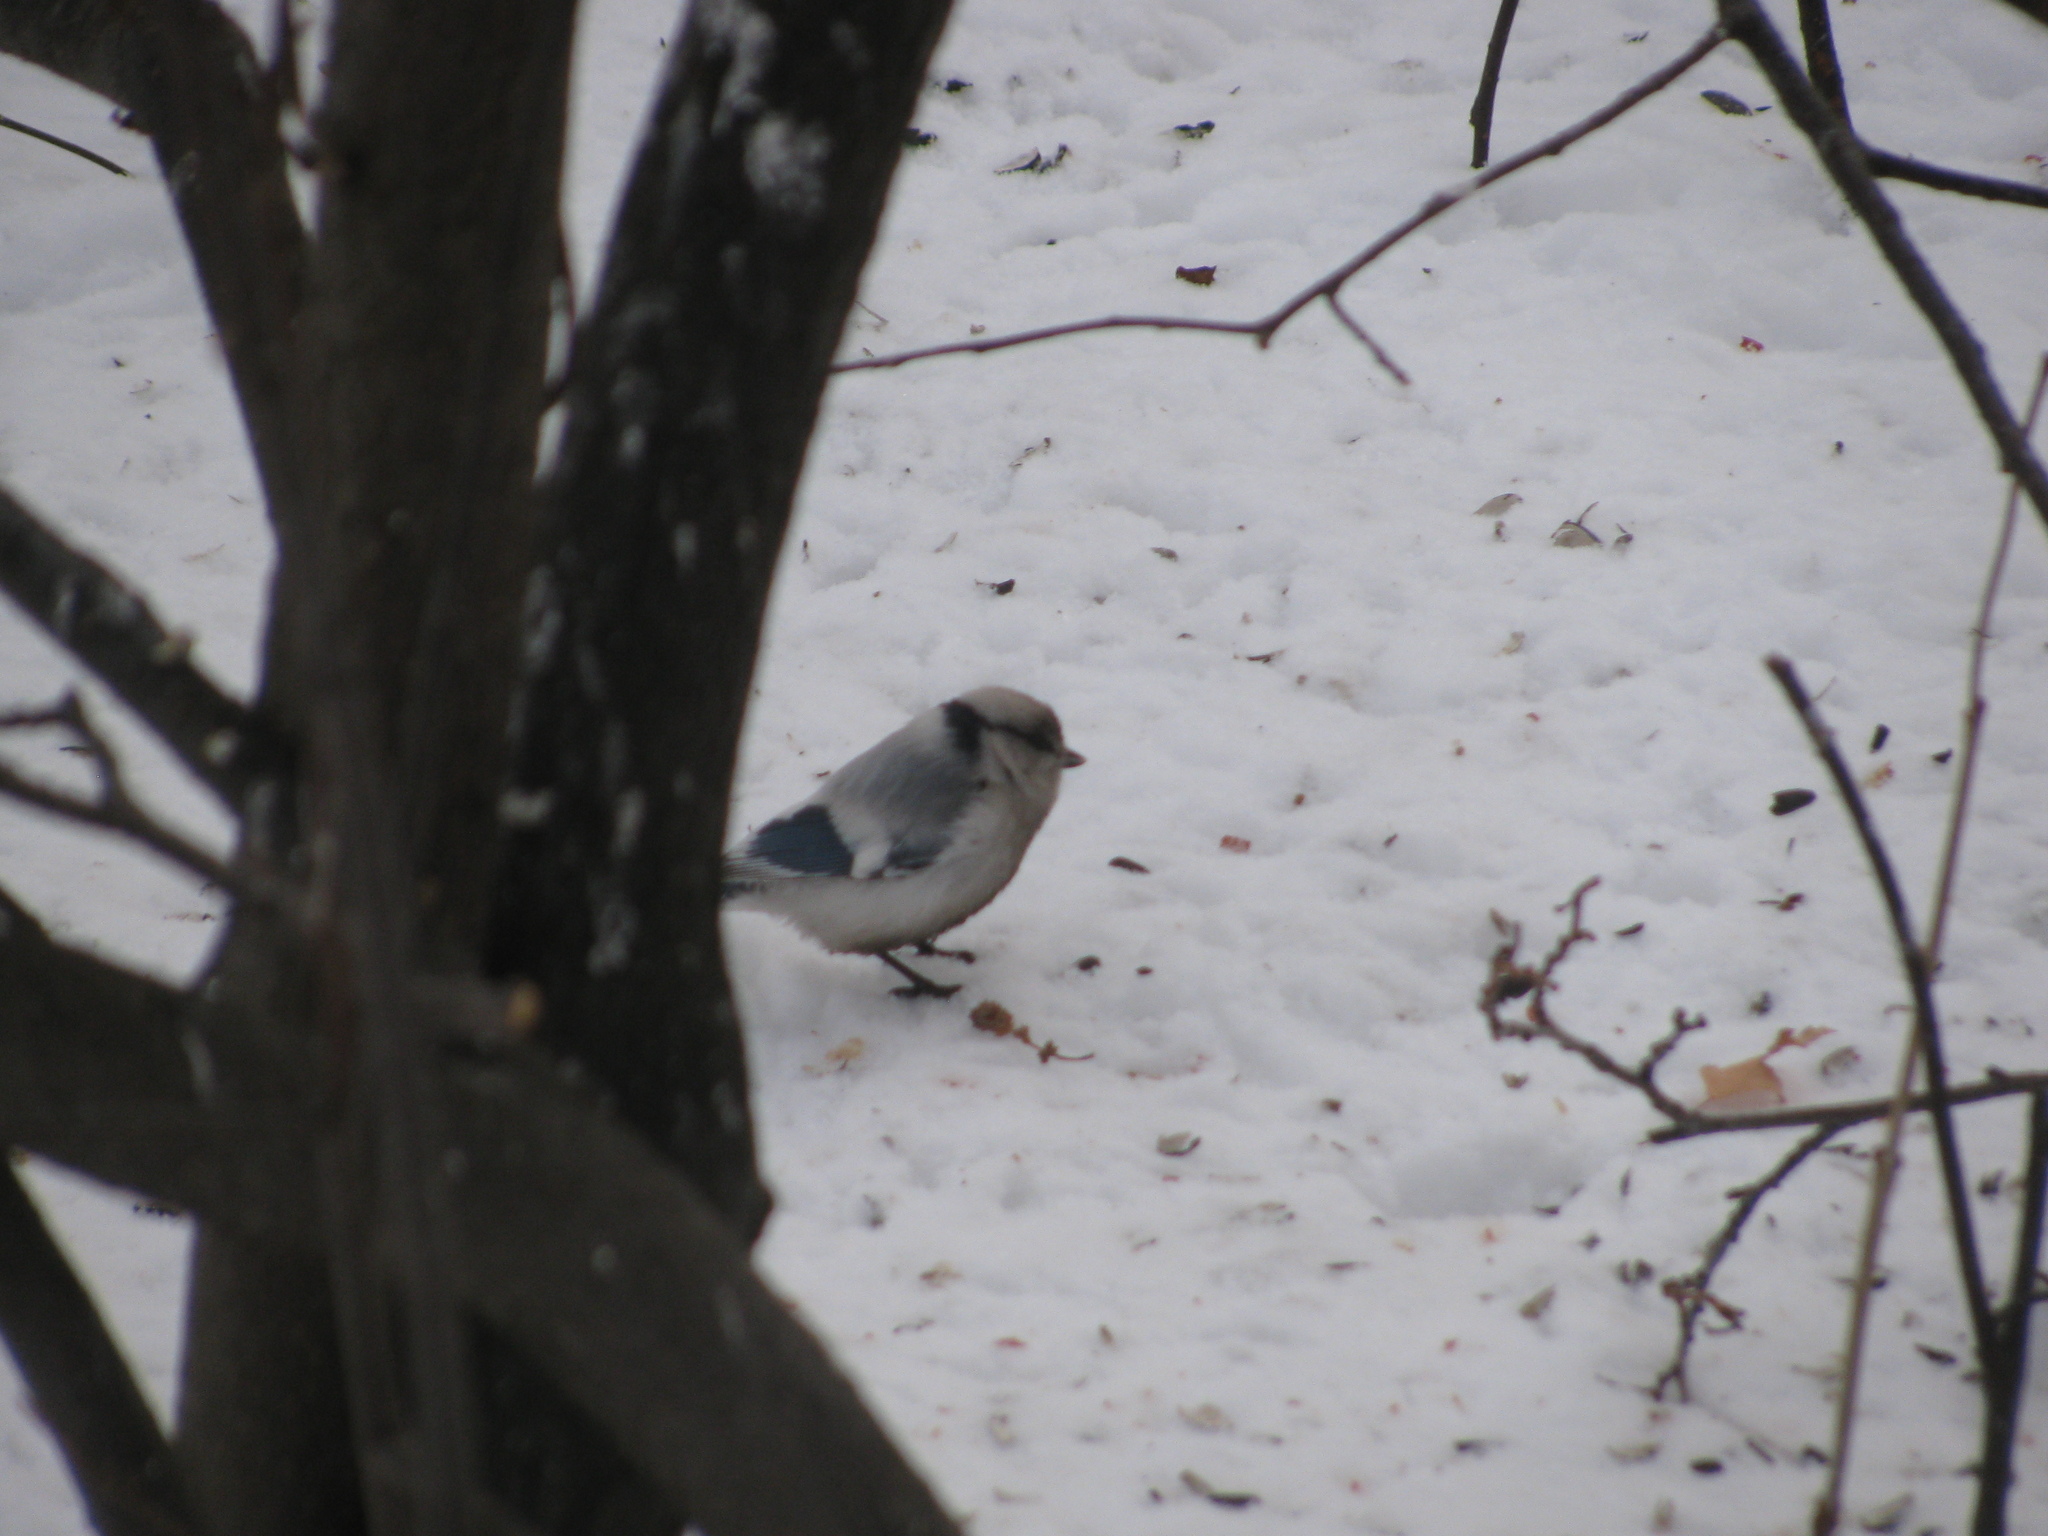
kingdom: Animalia
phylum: Chordata
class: Aves
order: Passeriformes
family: Paridae
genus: Cyanistes
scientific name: Cyanistes cyanus
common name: Azure tit
